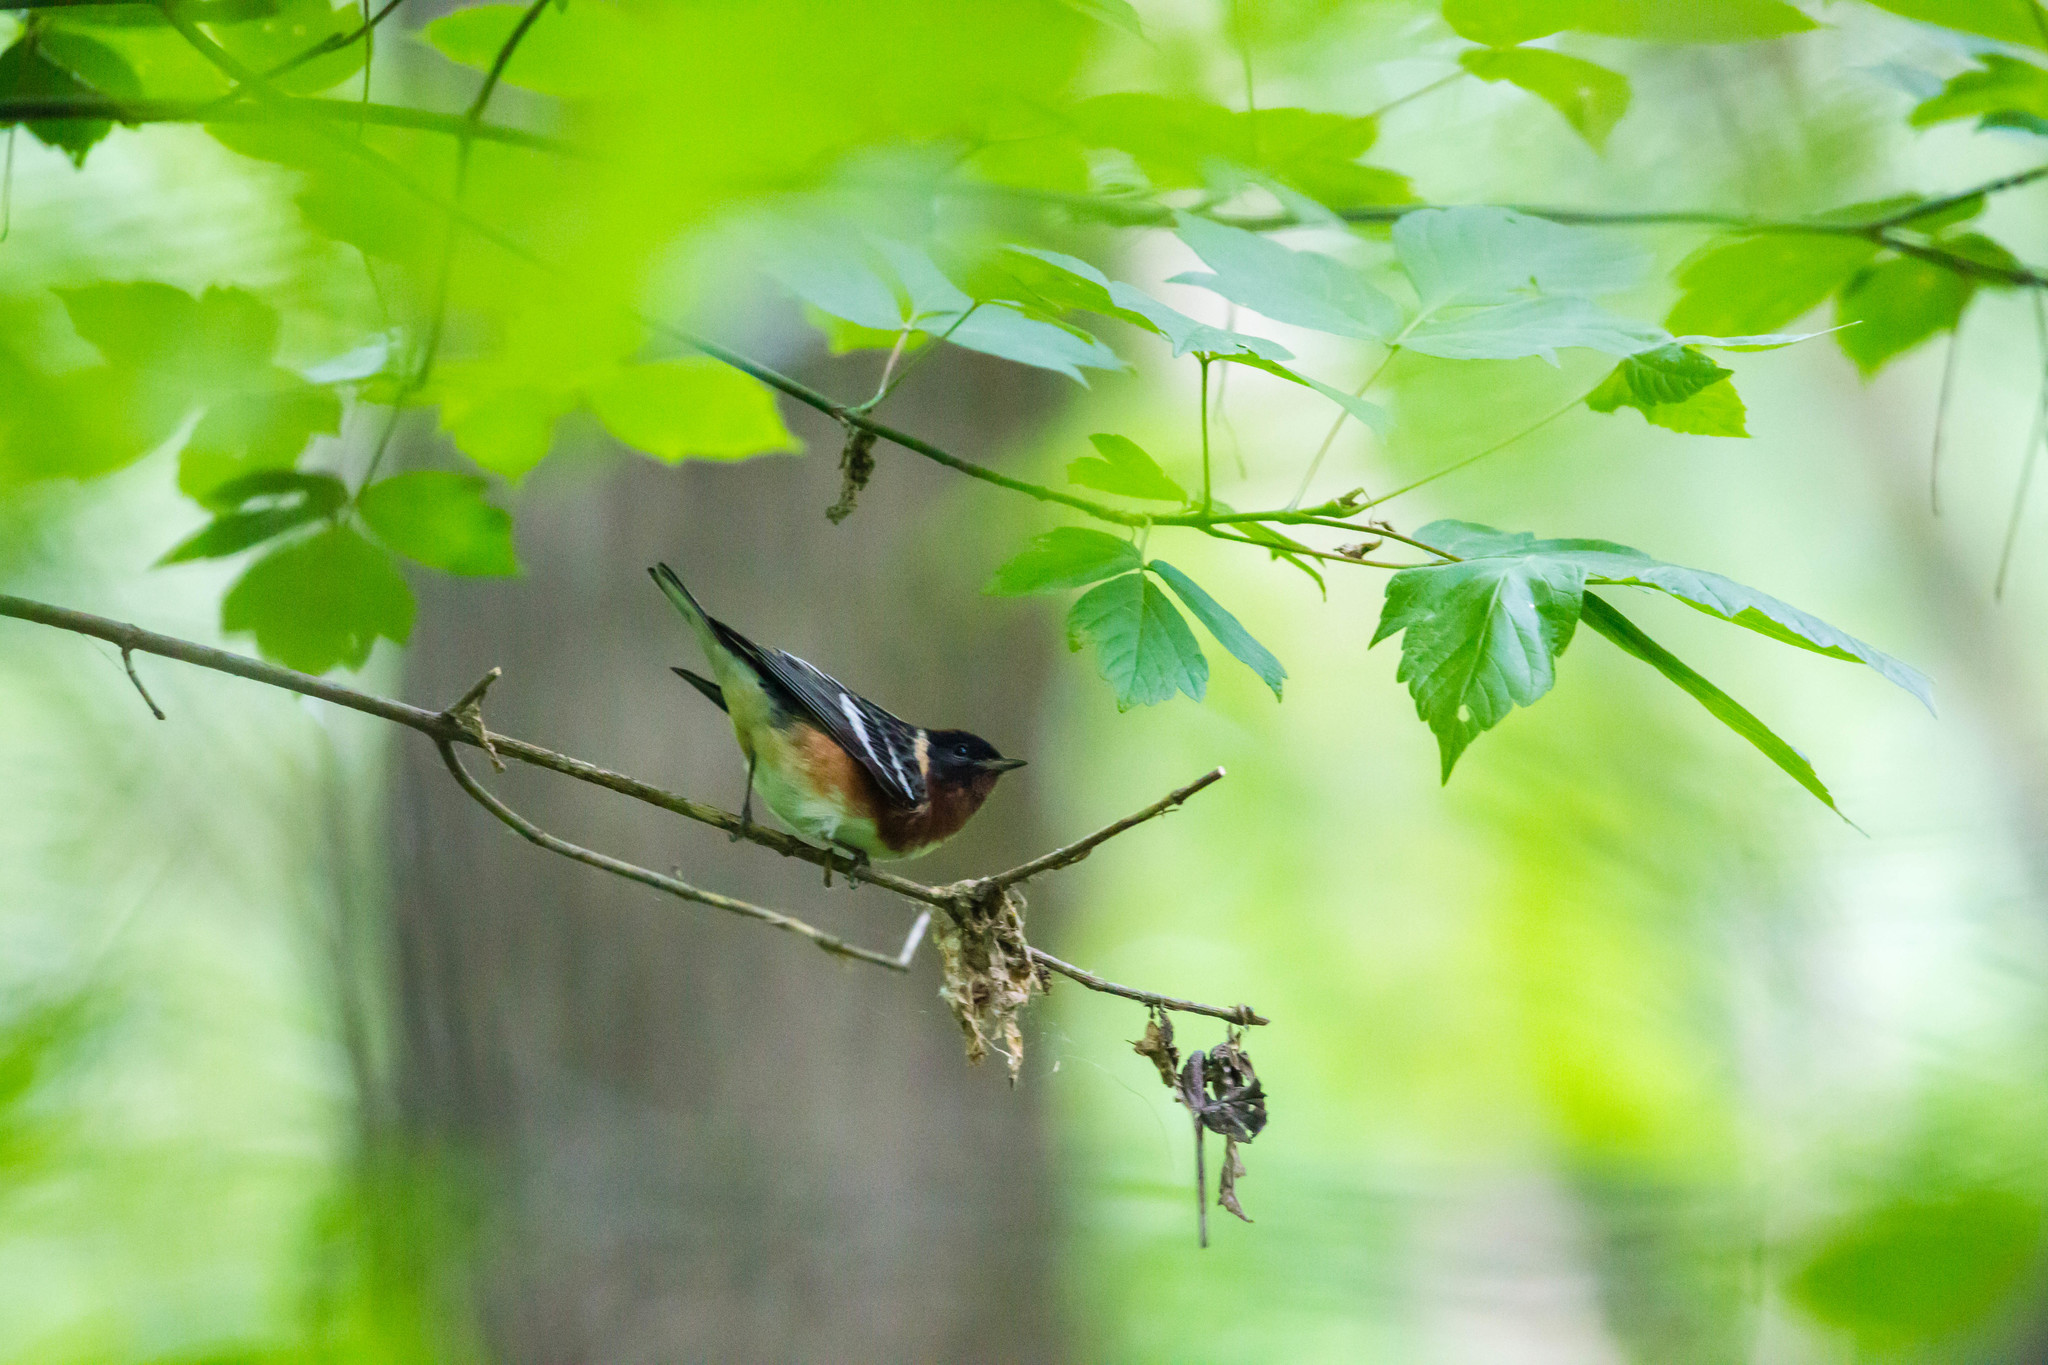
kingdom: Animalia
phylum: Chordata
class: Aves
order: Passeriformes
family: Parulidae
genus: Setophaga
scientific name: Setophaga castanea
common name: Bay-breasted warbler
